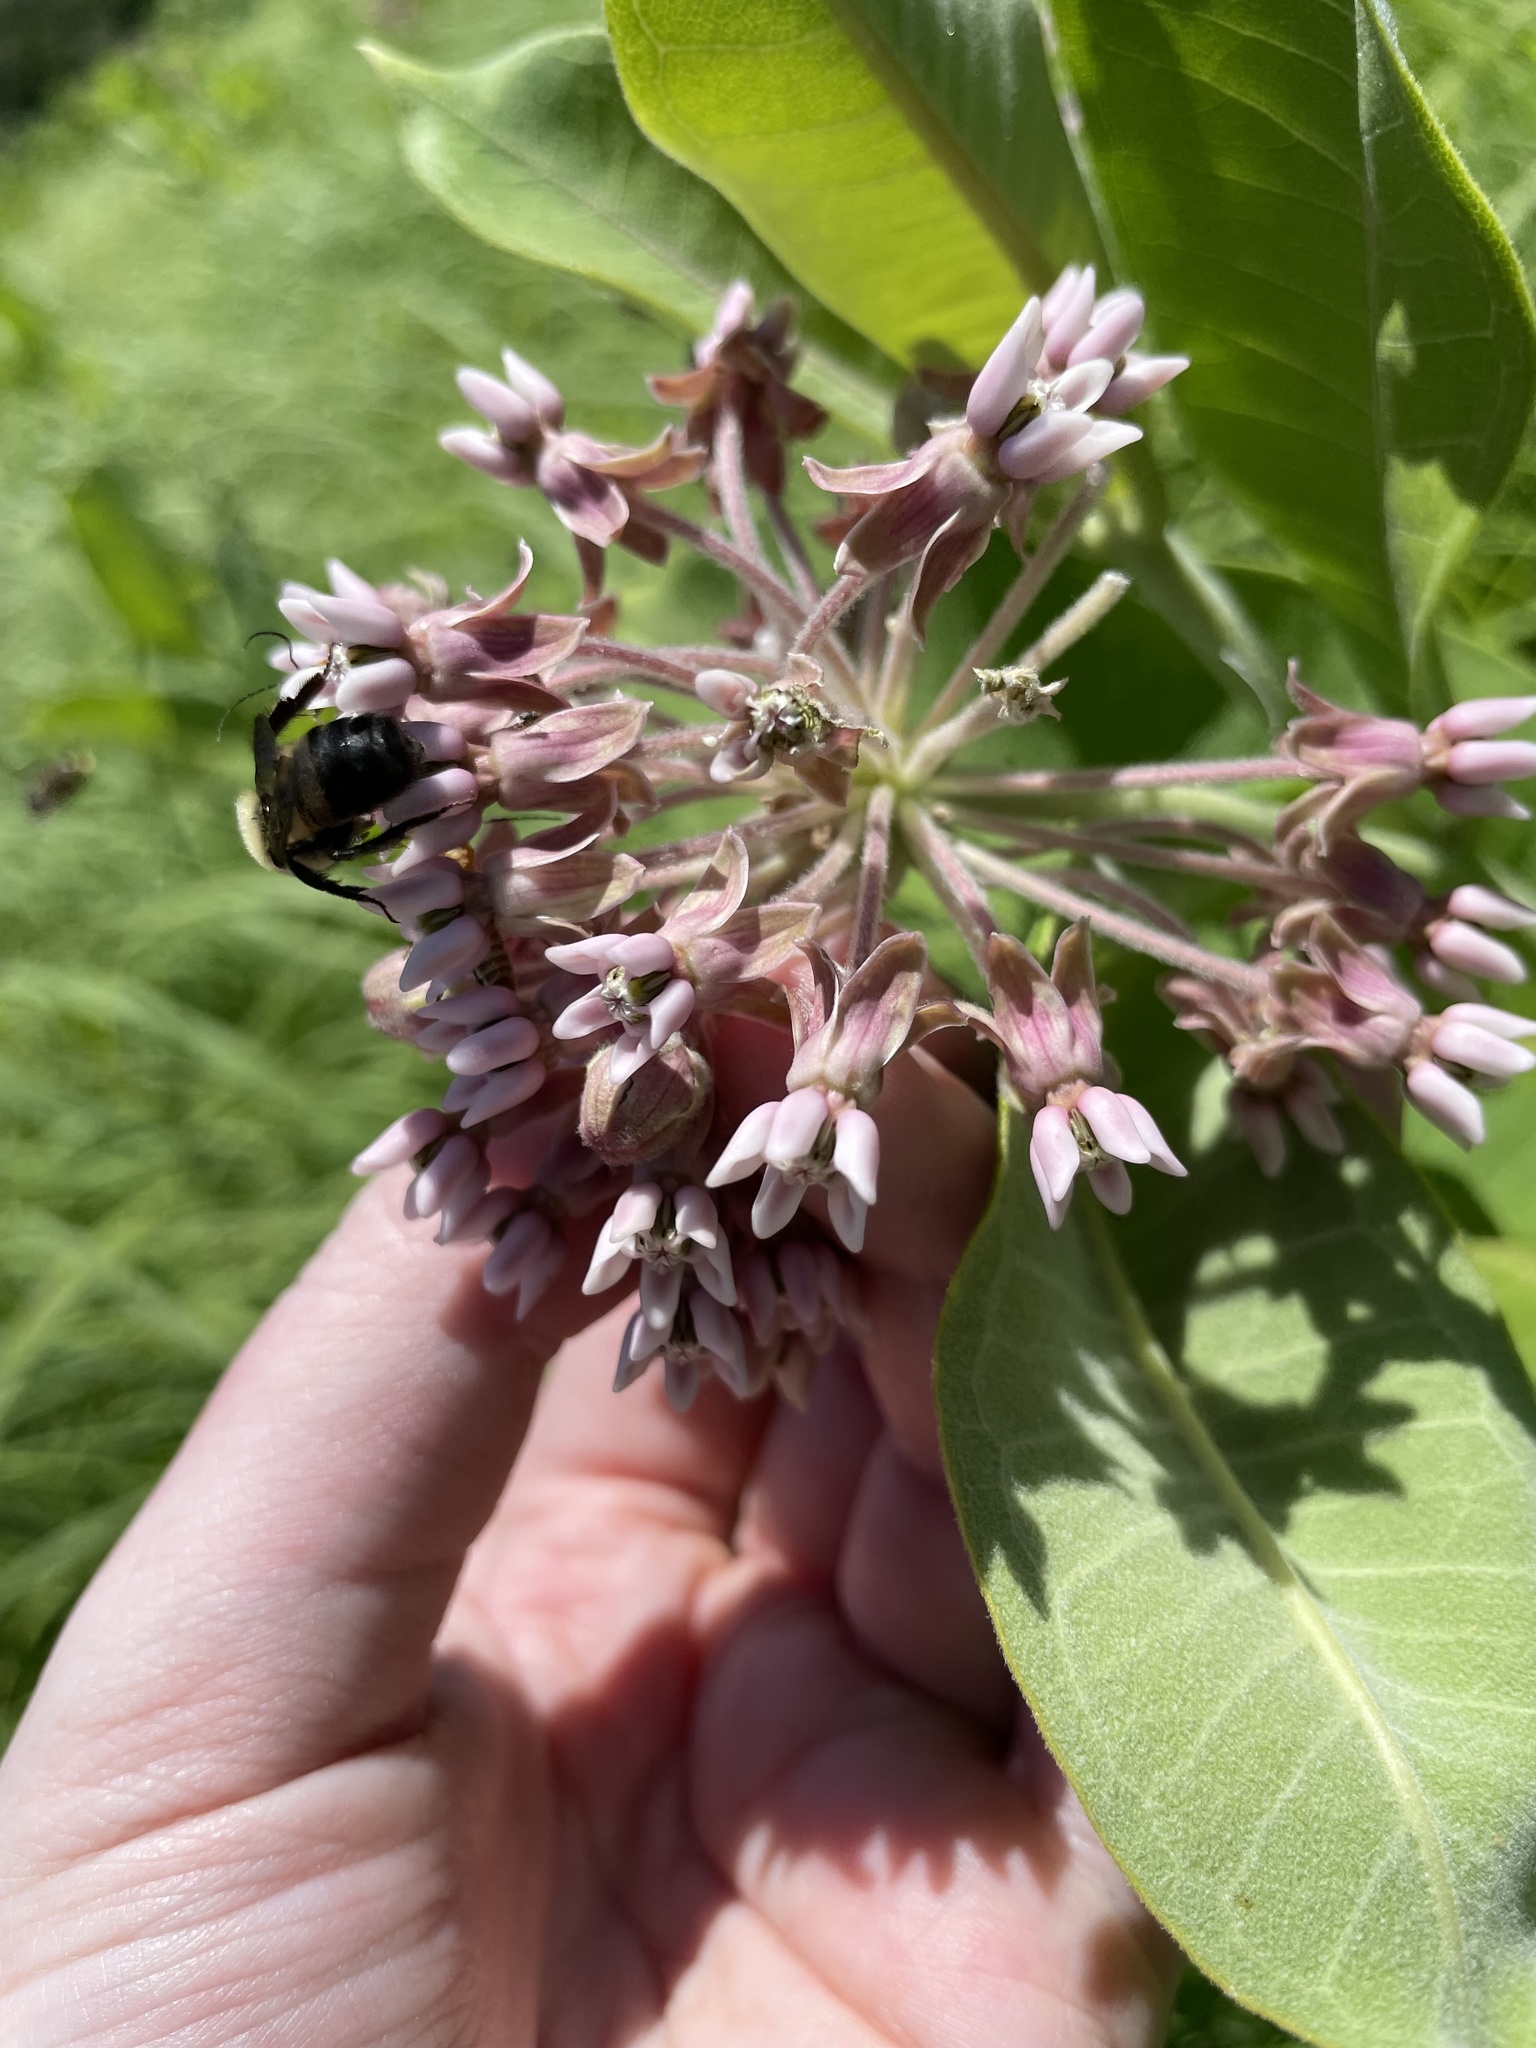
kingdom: Animalia
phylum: Arthropoda
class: Insecta
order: Hymenoptera
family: Apidae
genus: Bombus
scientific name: Bombus griseocollis
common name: Brown-belted bumble bee
